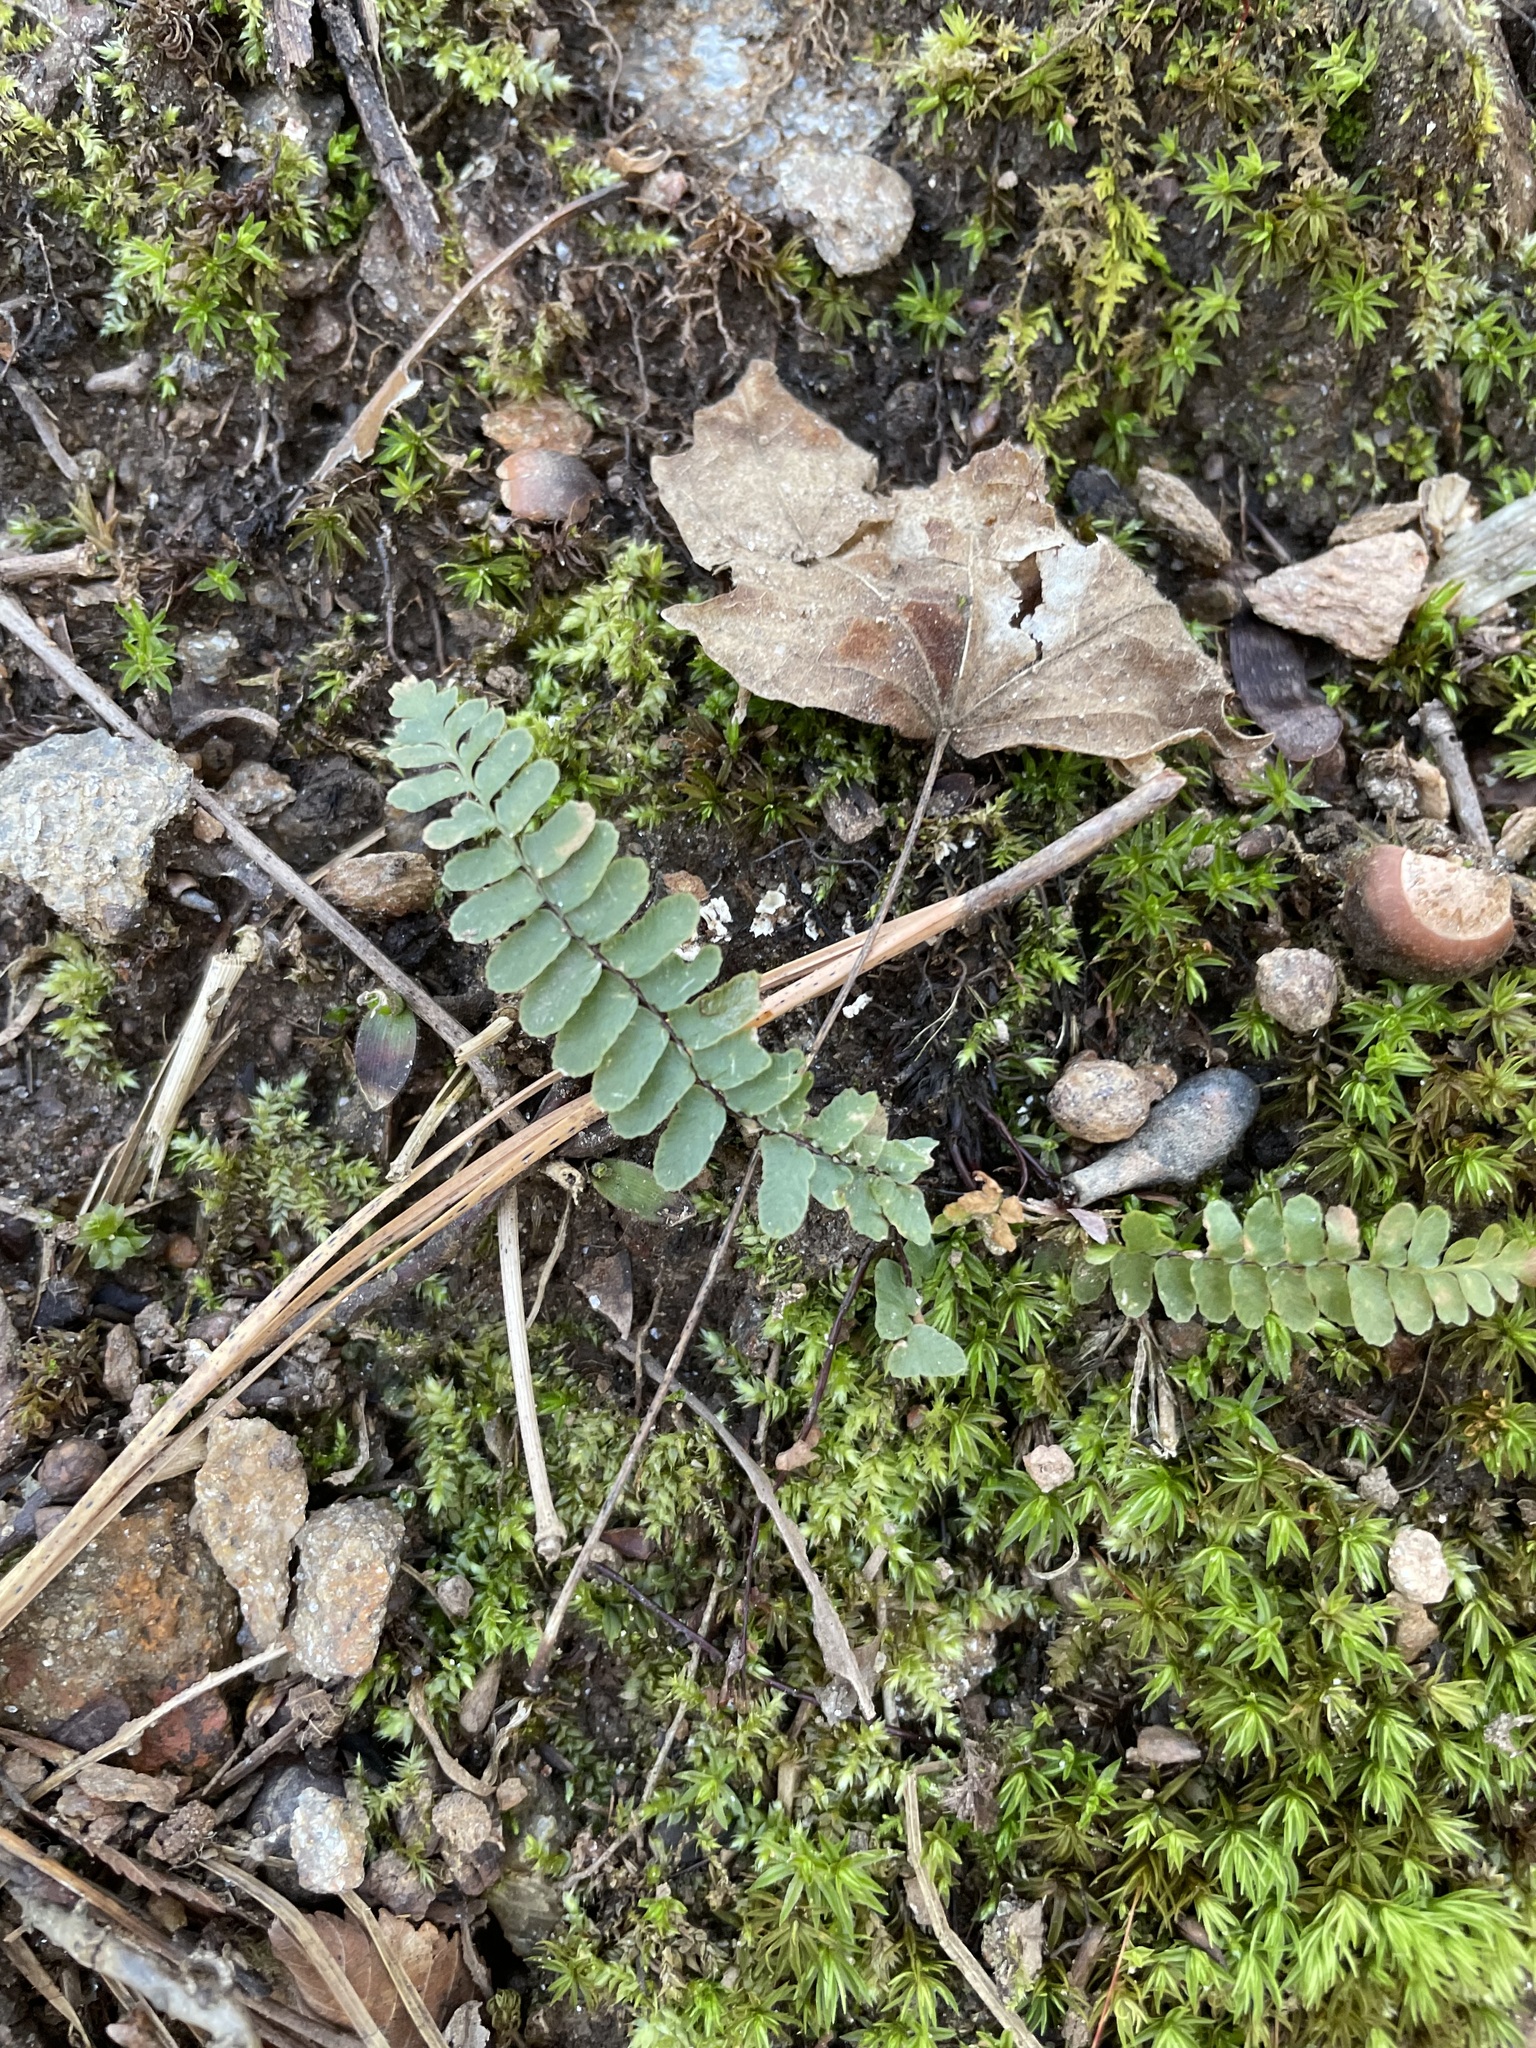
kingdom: Plantae
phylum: Tracheophyta
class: Polypodiopsida
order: Polypodiales
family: Aspleniaceae
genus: Asplenium
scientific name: Asplenium platyneuron
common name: Ebony spleenwort
